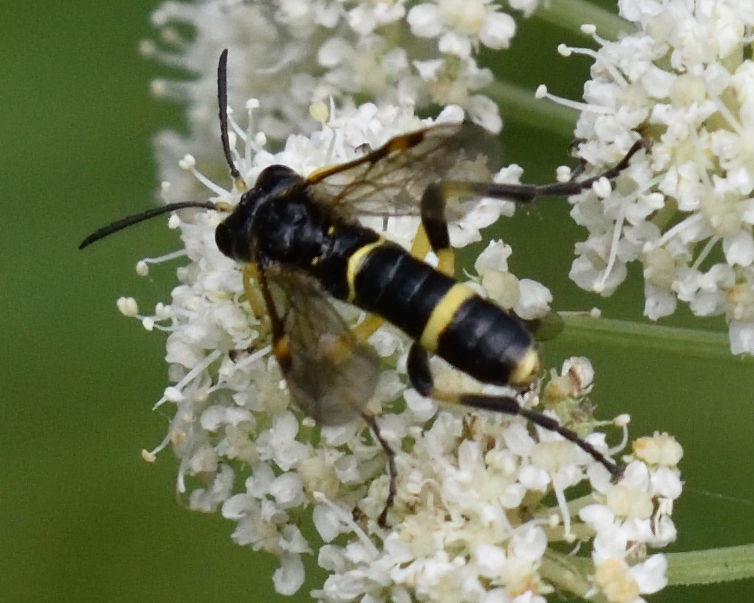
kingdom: Animalia
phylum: Arthropoda
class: Insecta
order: Hymenoptera
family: Tenthredinidae
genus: Tenthredo
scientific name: Tenthredo amoena
